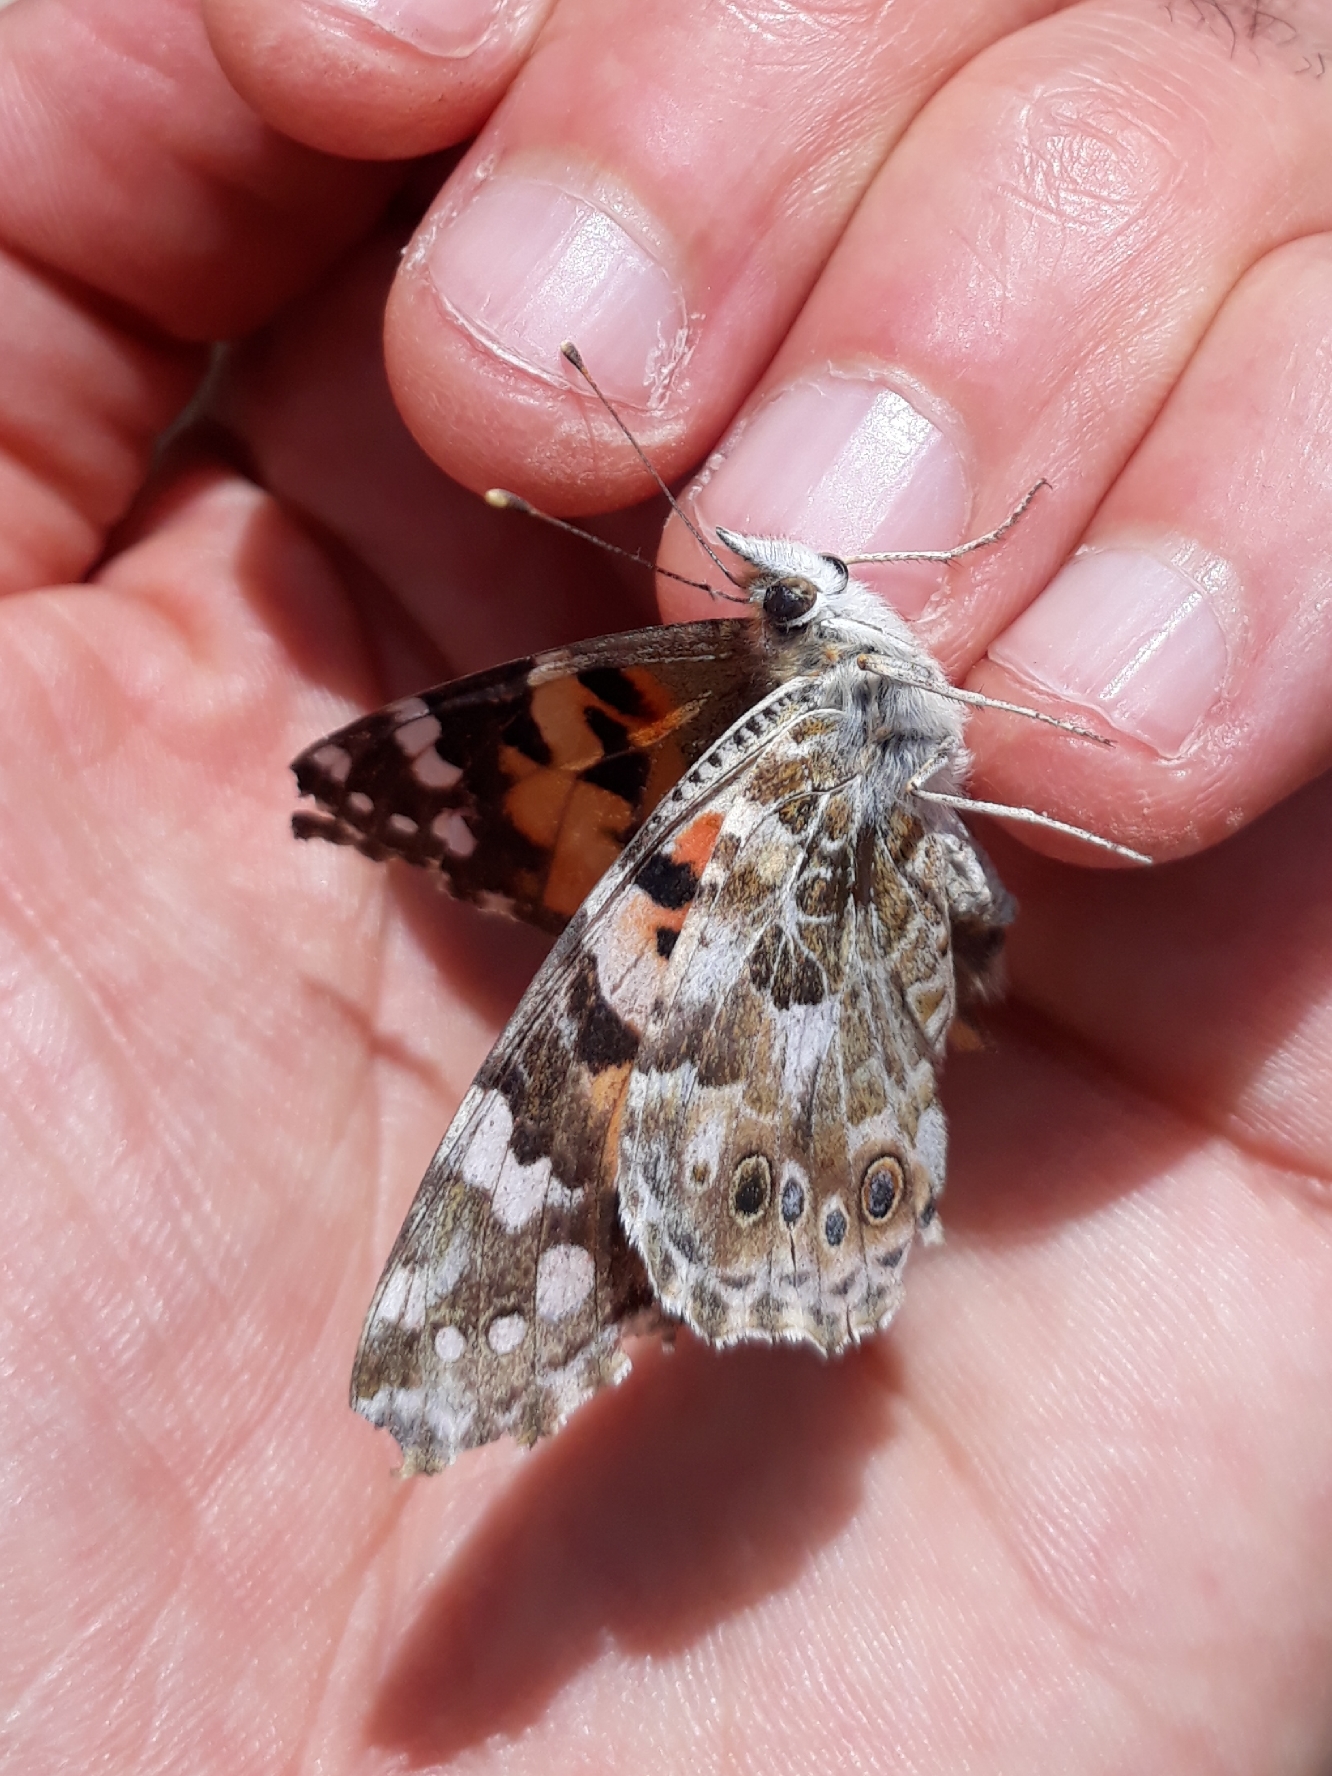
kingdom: Animalia
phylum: Arthropoda
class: Insecta
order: Lepidoptera
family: Nymphalidae
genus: Vanessa
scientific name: Vanessa cardui
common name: Painted lady
